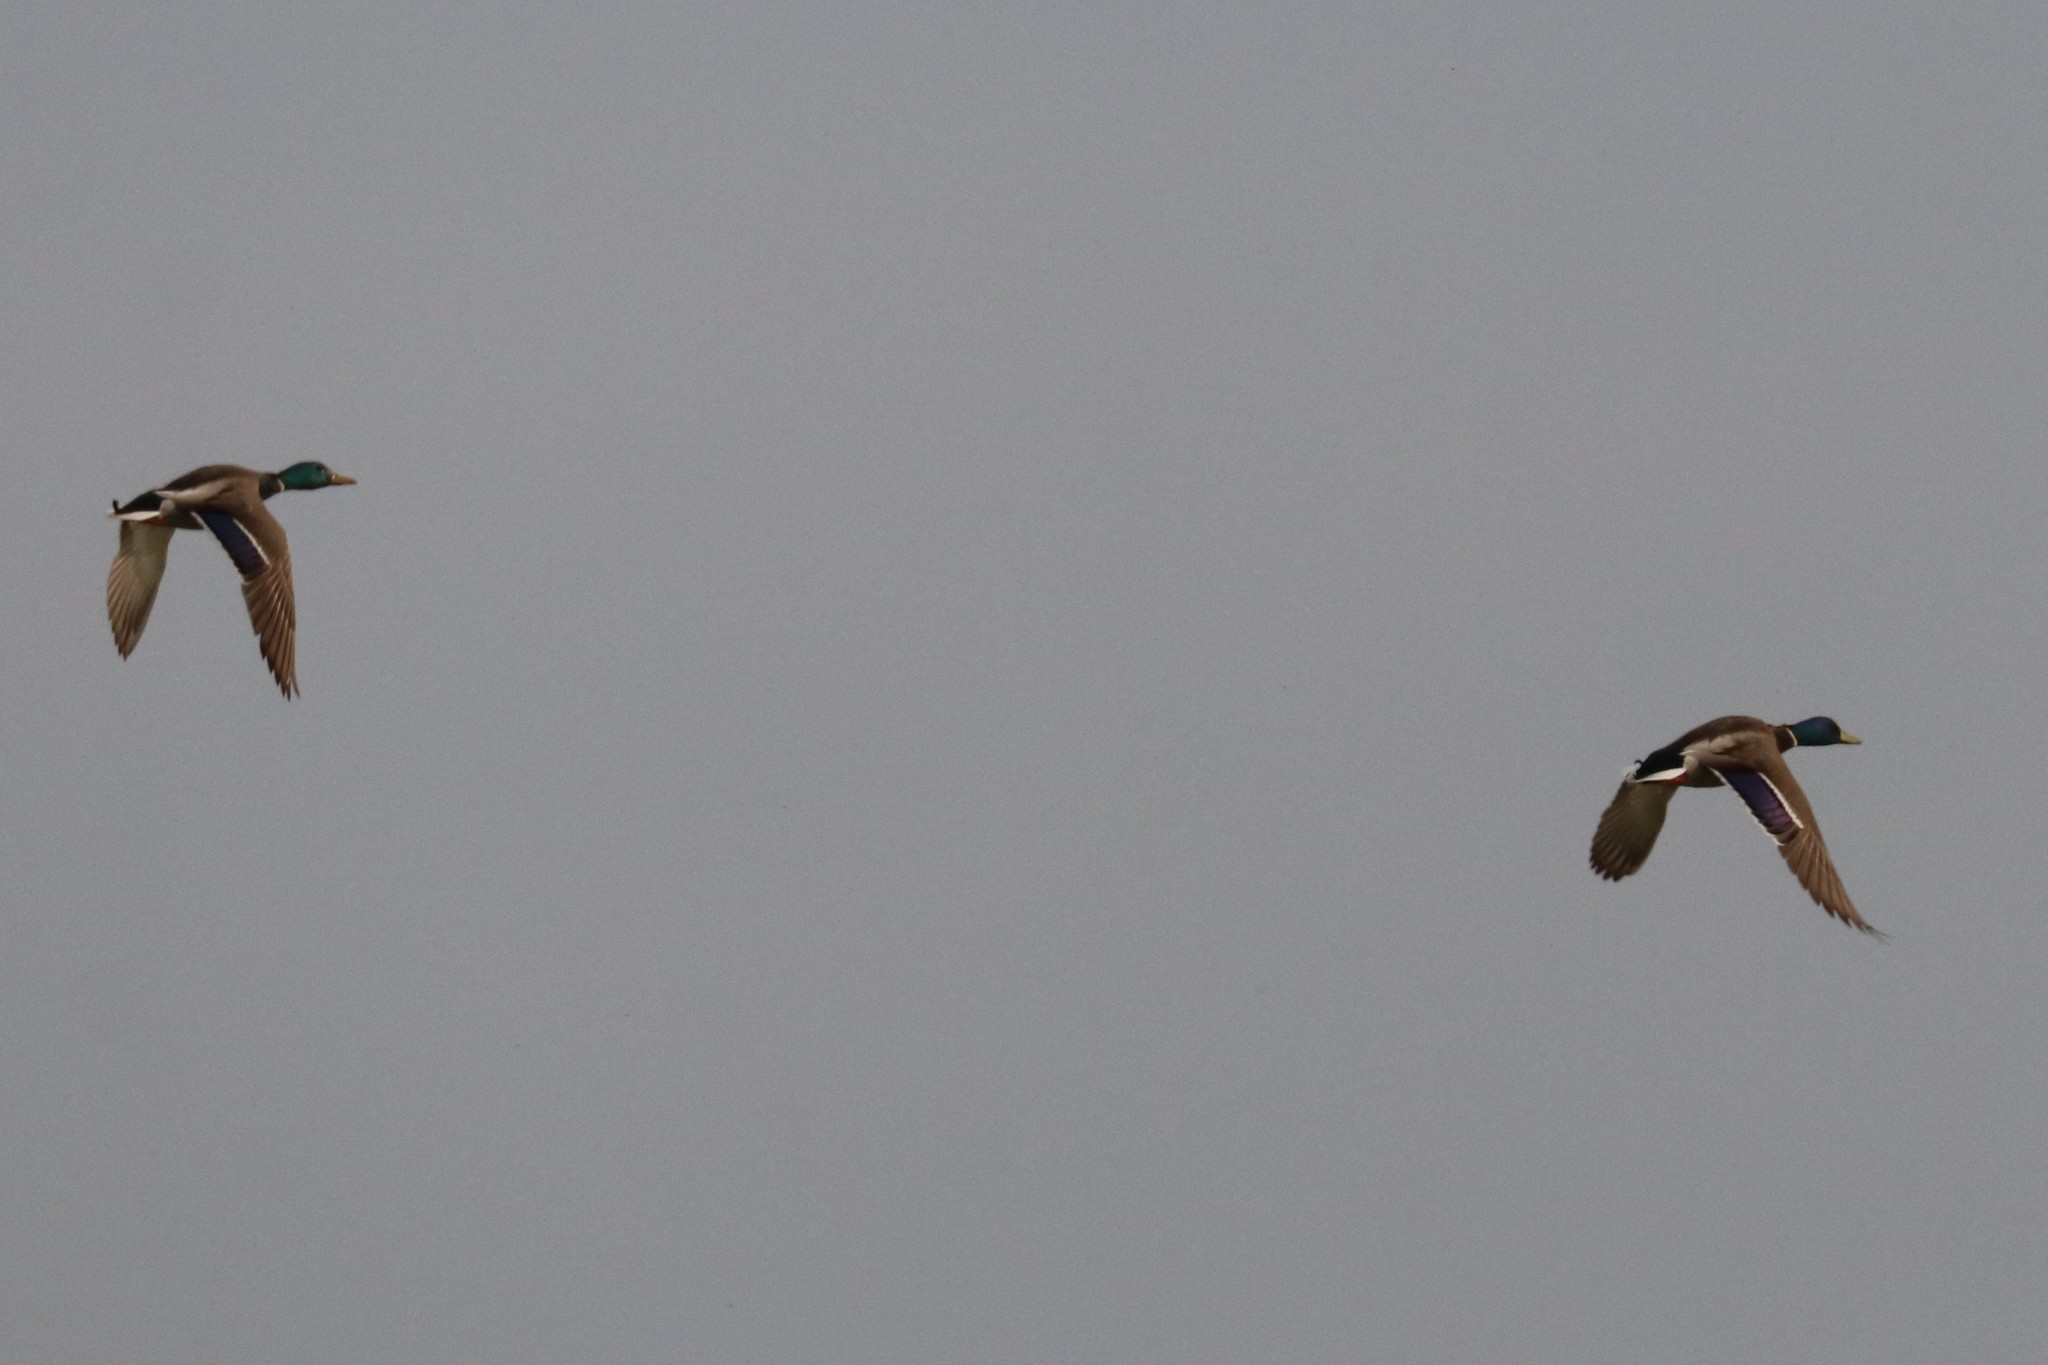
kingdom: Animalia
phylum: Chordata
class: Aves
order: Anseriformes
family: Anatidae
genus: Anas
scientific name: Anas platyrhynchos
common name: Mallard
